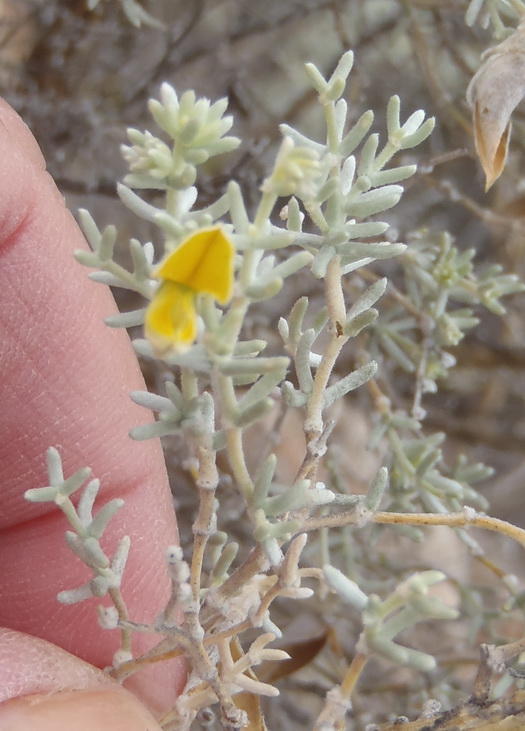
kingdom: Plantae
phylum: Tracheophyta
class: Magnoliopsida
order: Fabales
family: Fabaceae
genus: Aspalathus
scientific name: Aspalathus pedunculata
